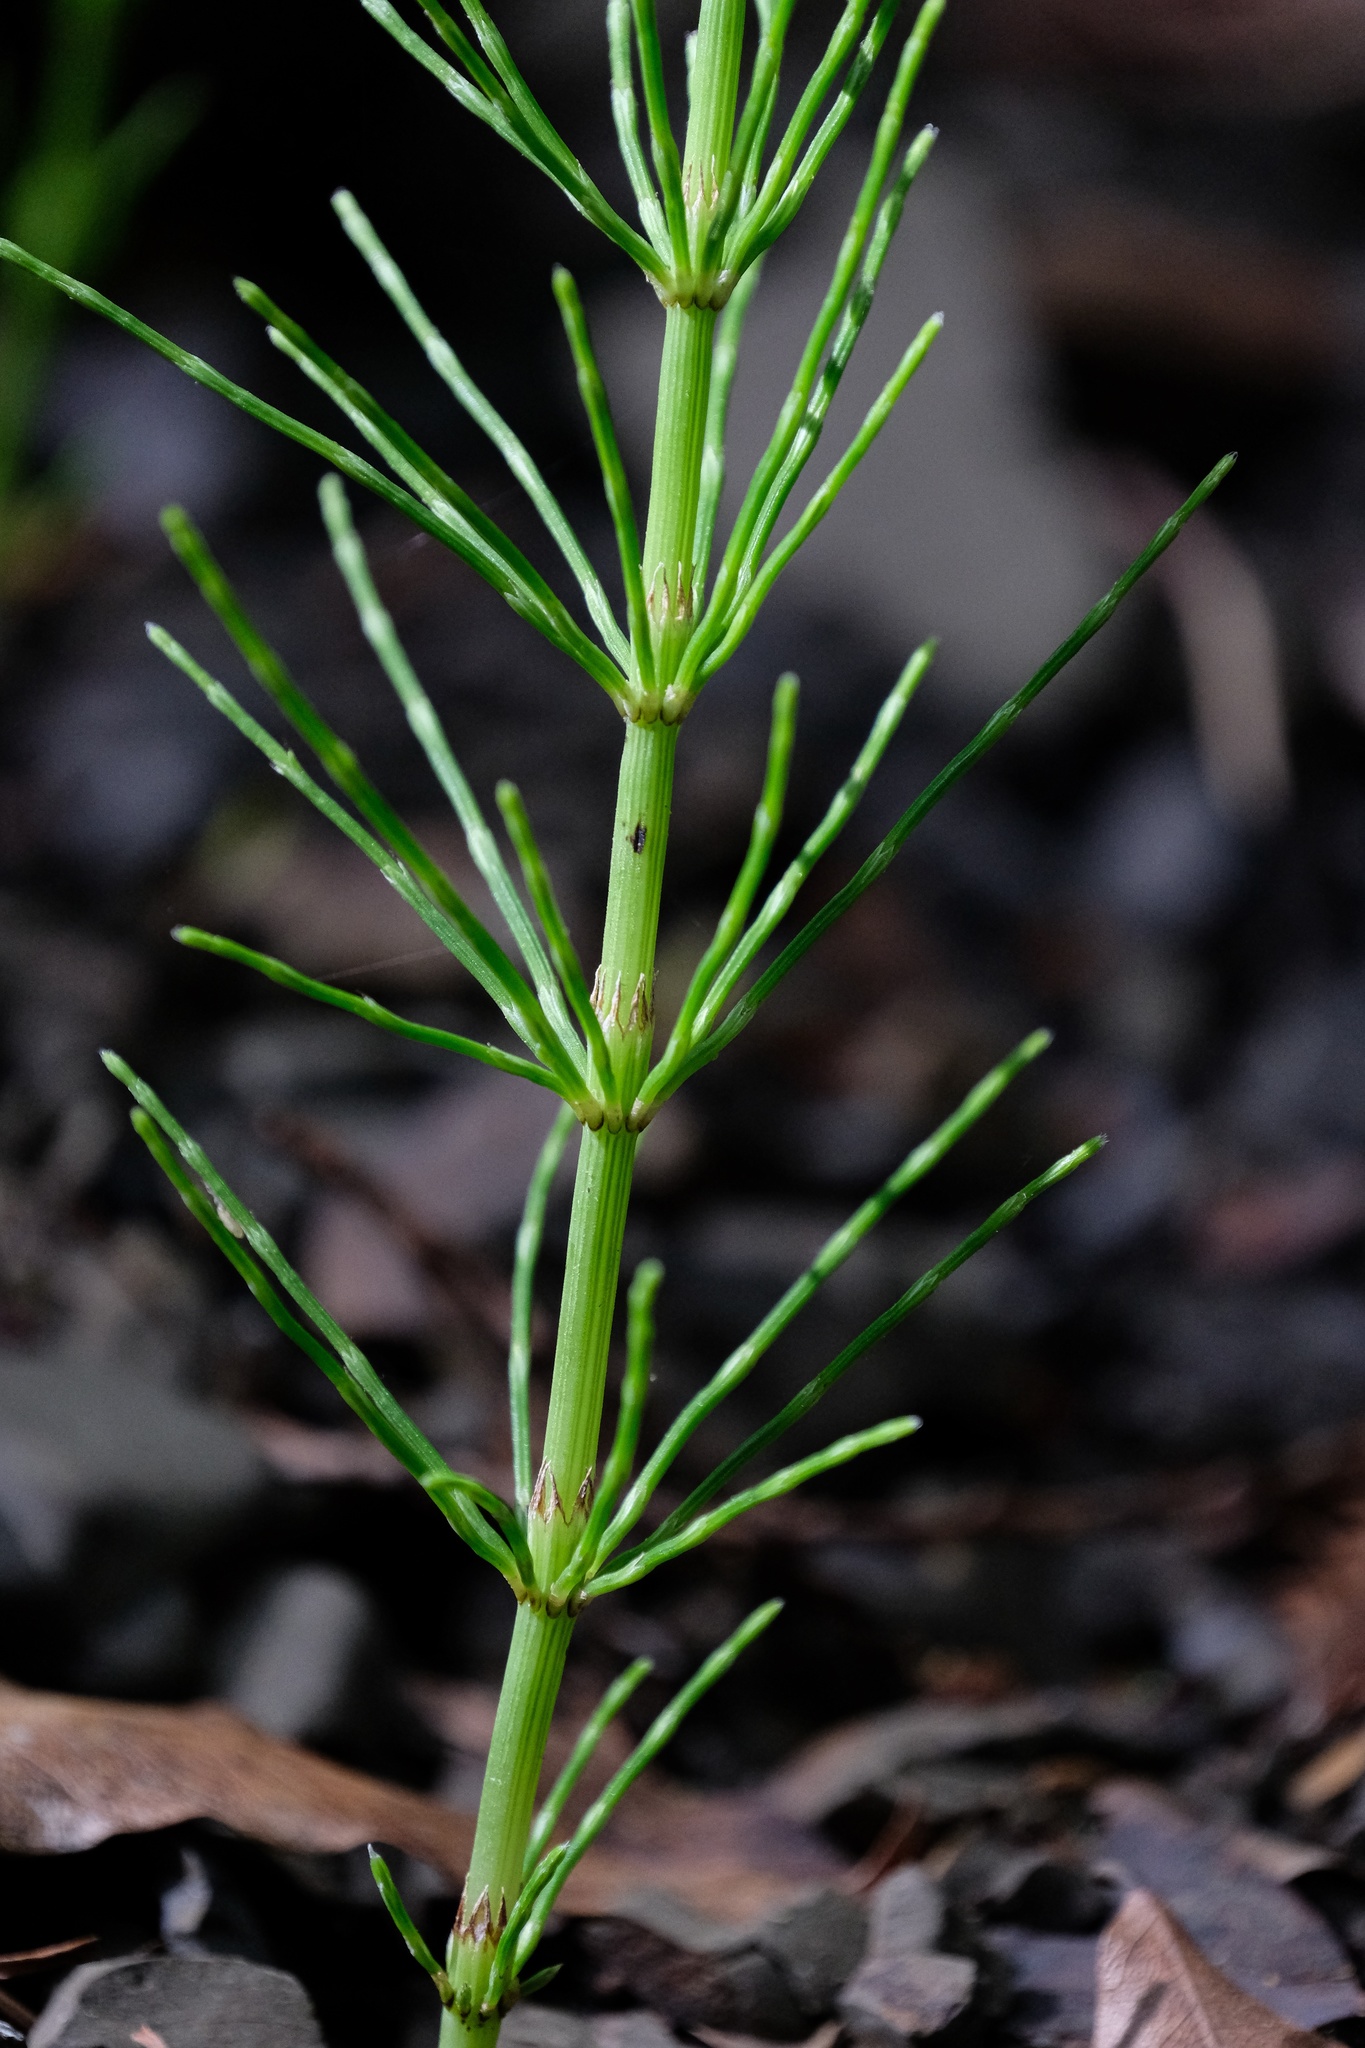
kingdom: Plantae
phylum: Tracheophyta
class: Polypodiopsida
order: Equisetales
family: Equisetaceae
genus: Equisetum
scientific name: Equisetum arvense
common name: Field horsetail
